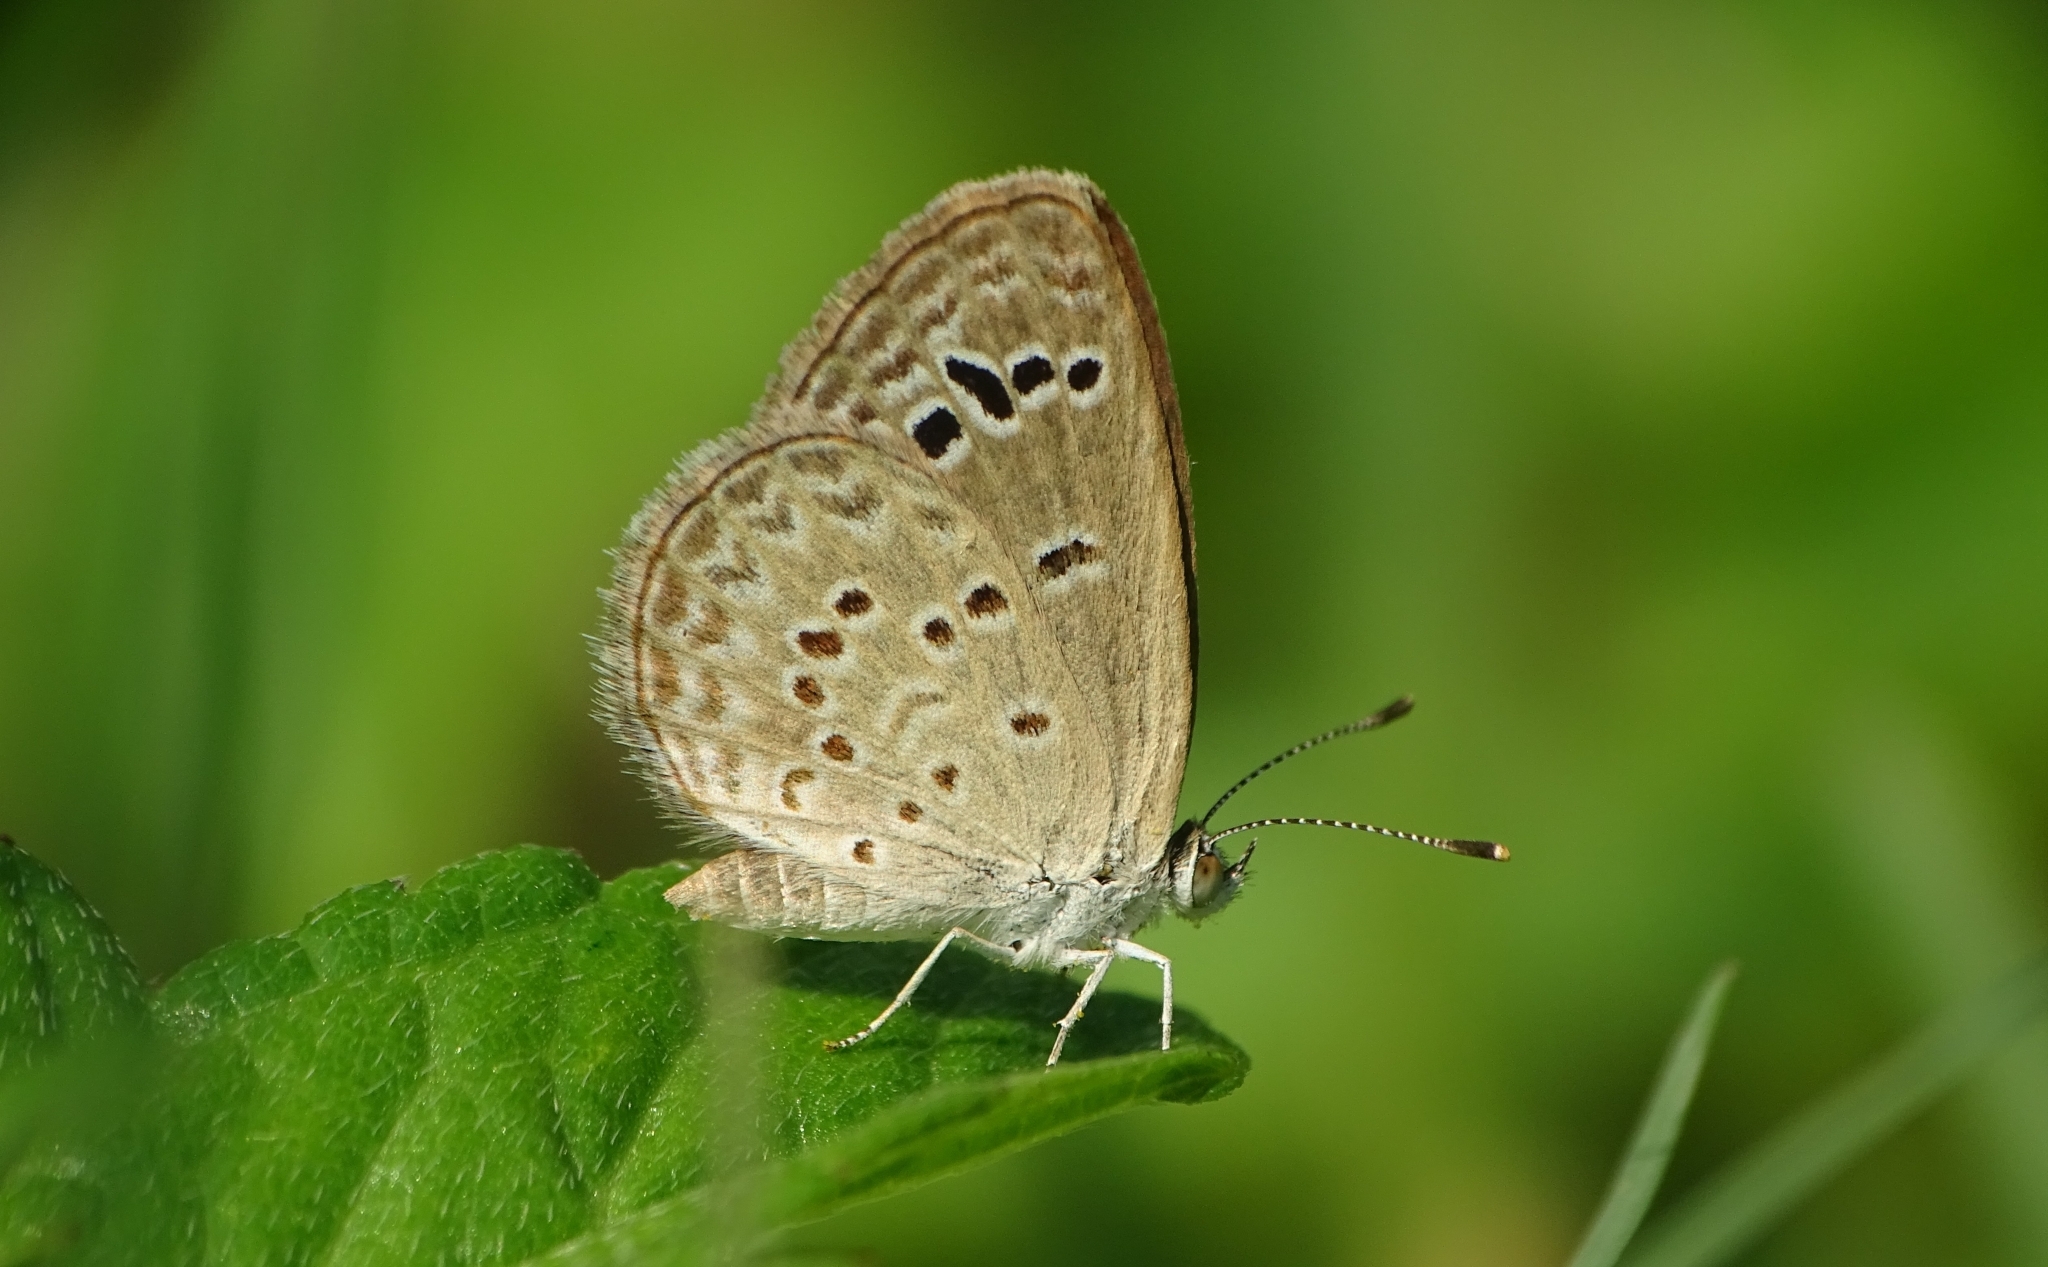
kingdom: Animalia
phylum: Arthropoda
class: Insecta
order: Lepidoptera
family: Lycaenidae
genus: Zizina
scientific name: Zizina otis
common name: Lesser grass blue
